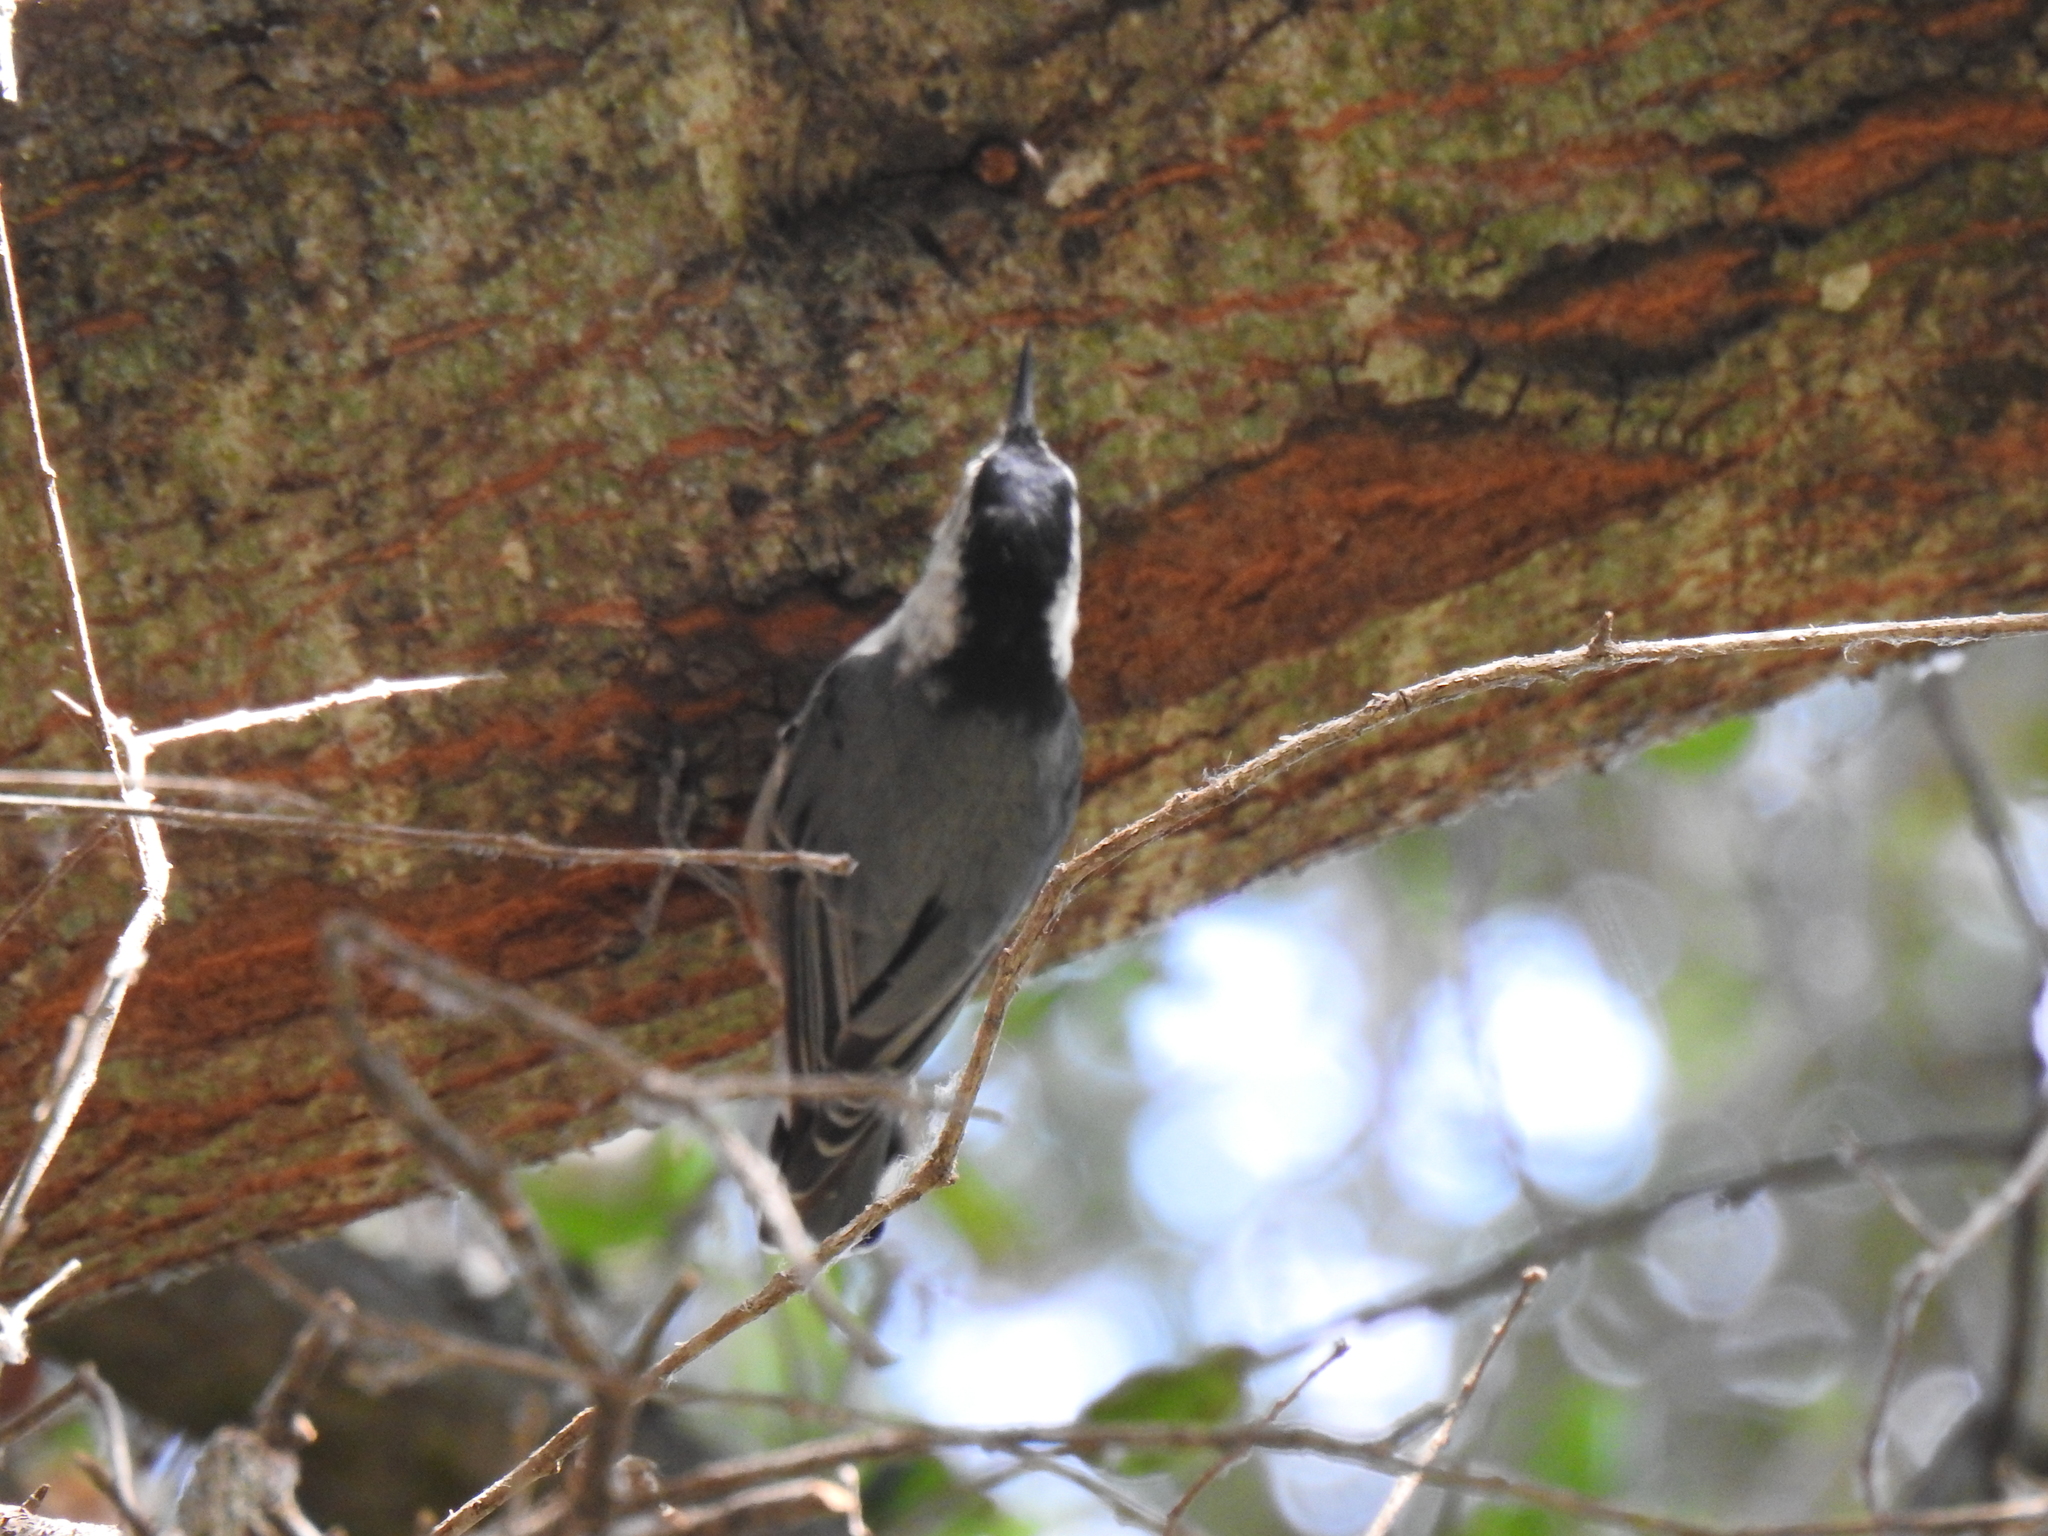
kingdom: Animalia
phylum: Chordata
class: Aves
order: Passeriformes
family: Sittidae
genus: Sitta
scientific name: Sitta carolinensis
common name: White-breasted nuthatch
